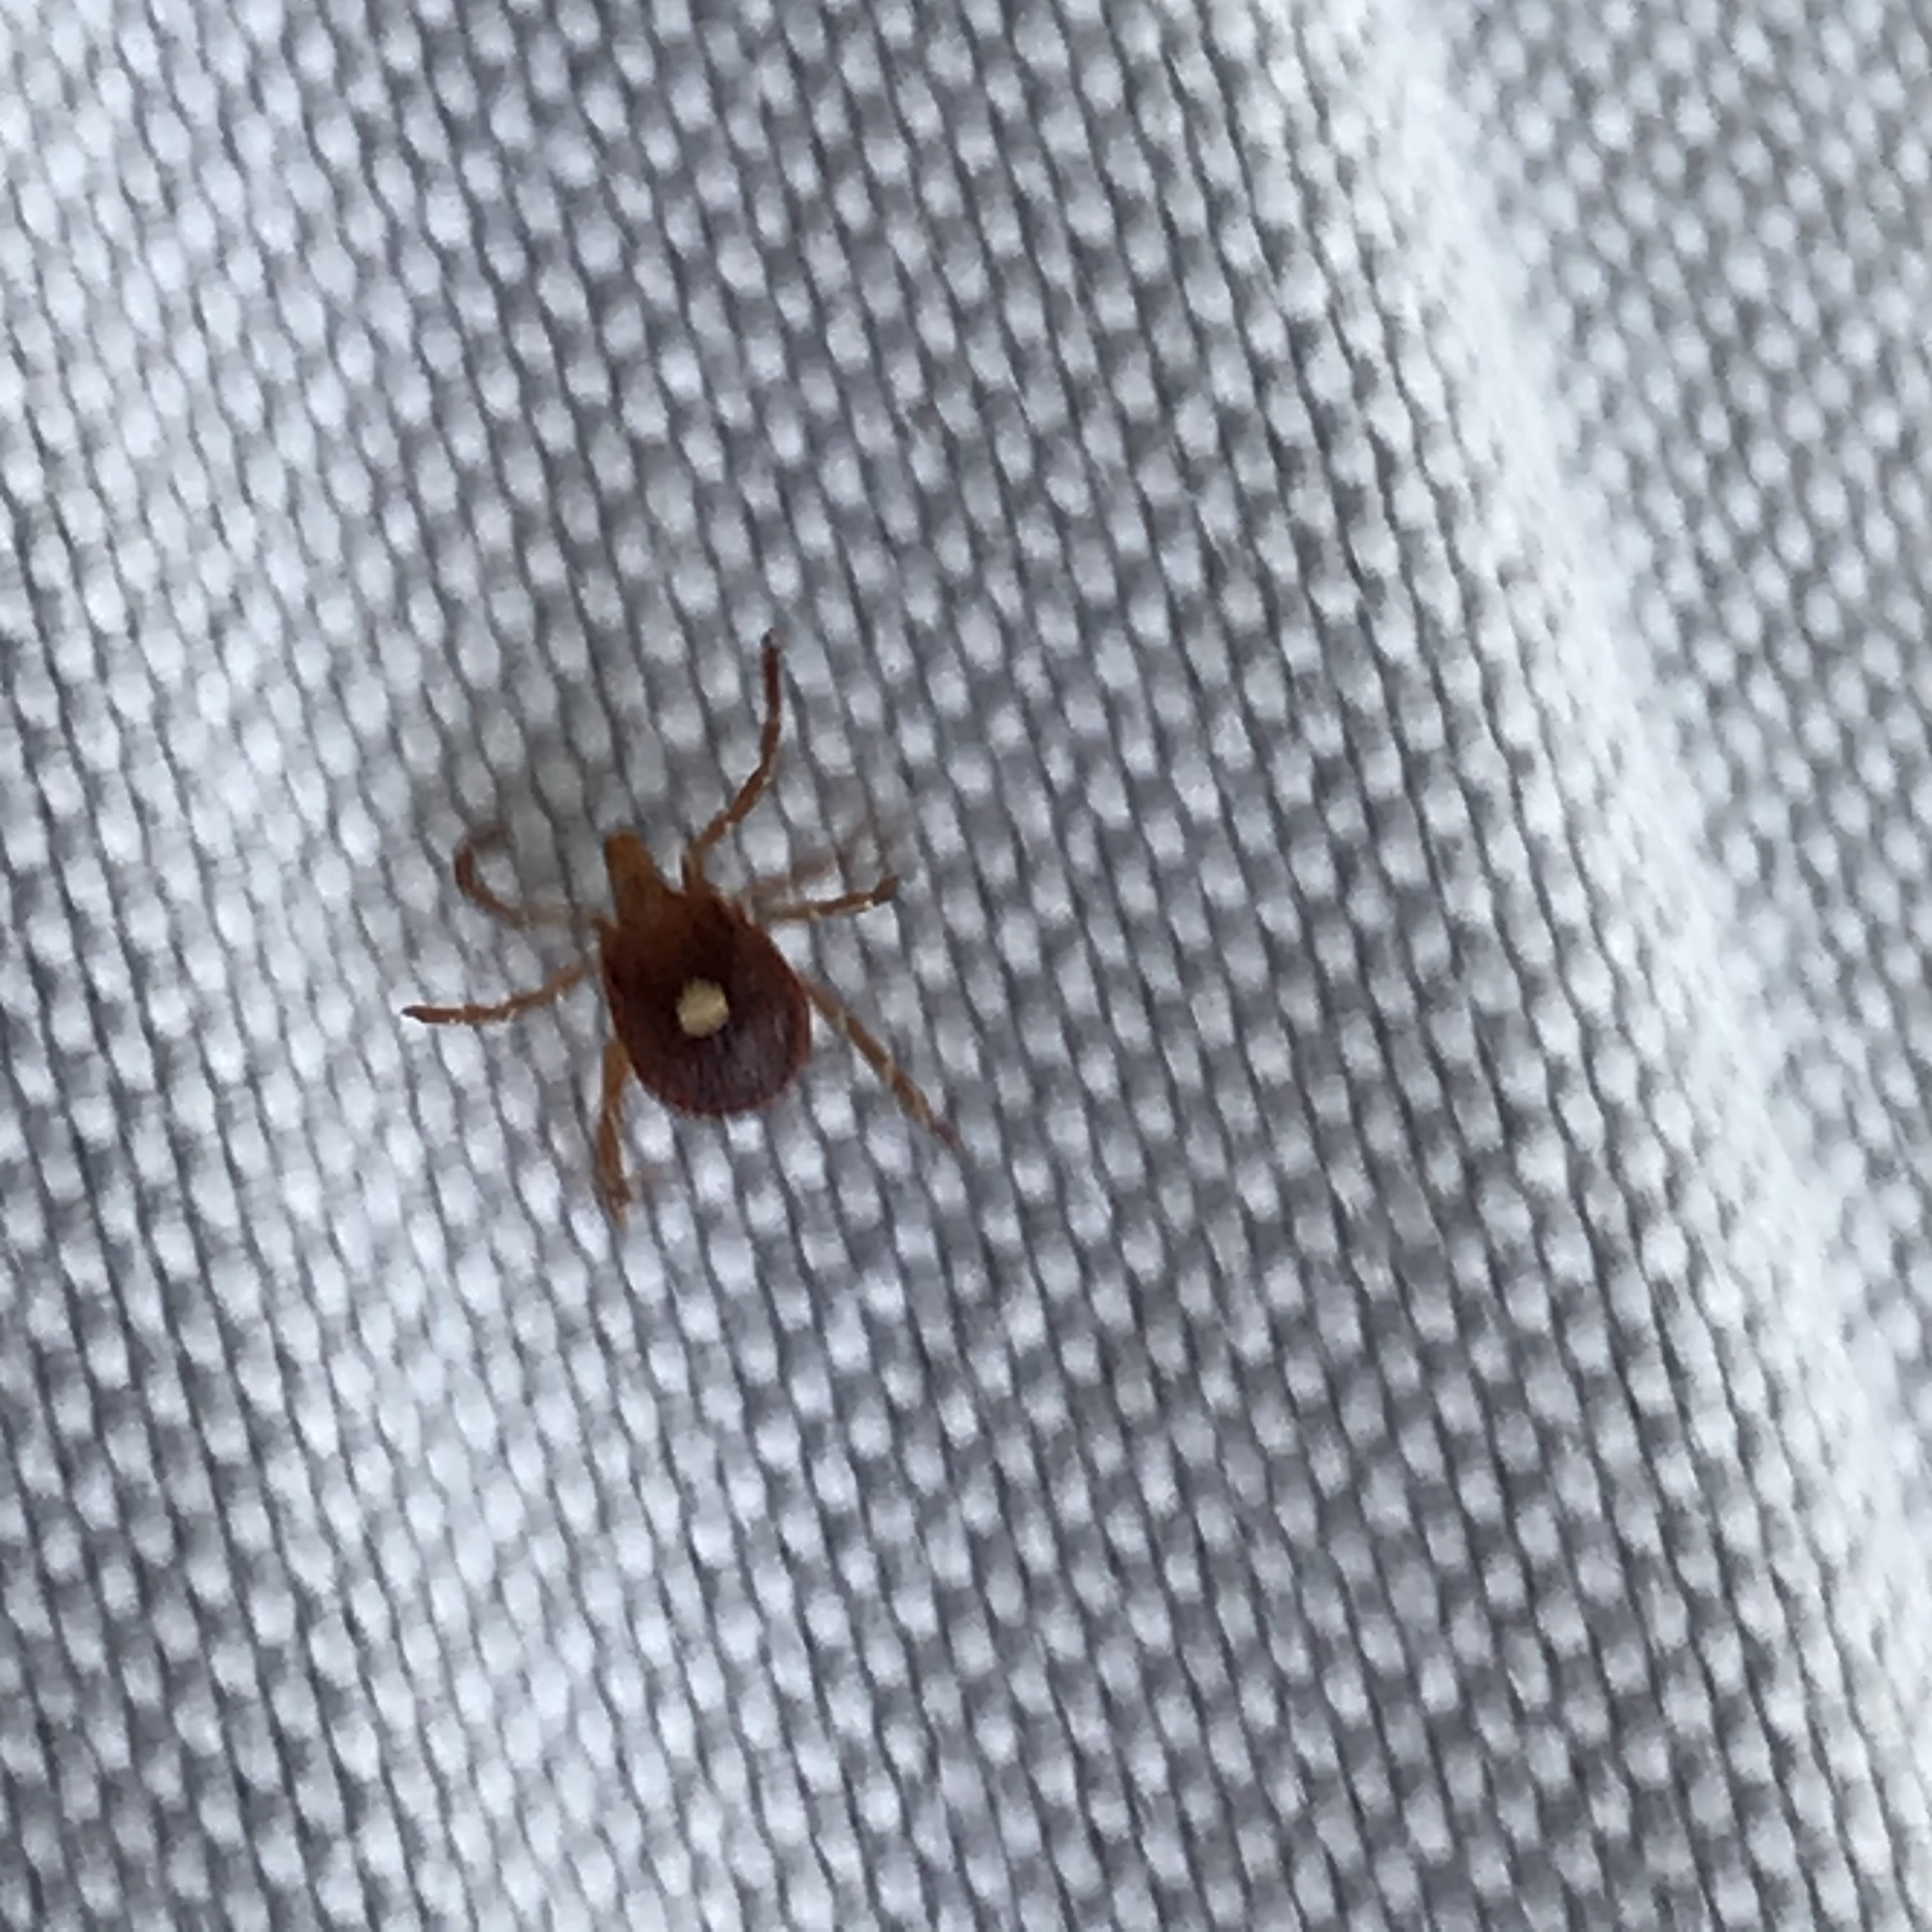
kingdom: Animalia
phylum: Arthropoda
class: Arachnida
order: Ixodida
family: Ixodidae
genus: Amblyomma
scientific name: Amblyomma americanum
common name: Lone star tick
